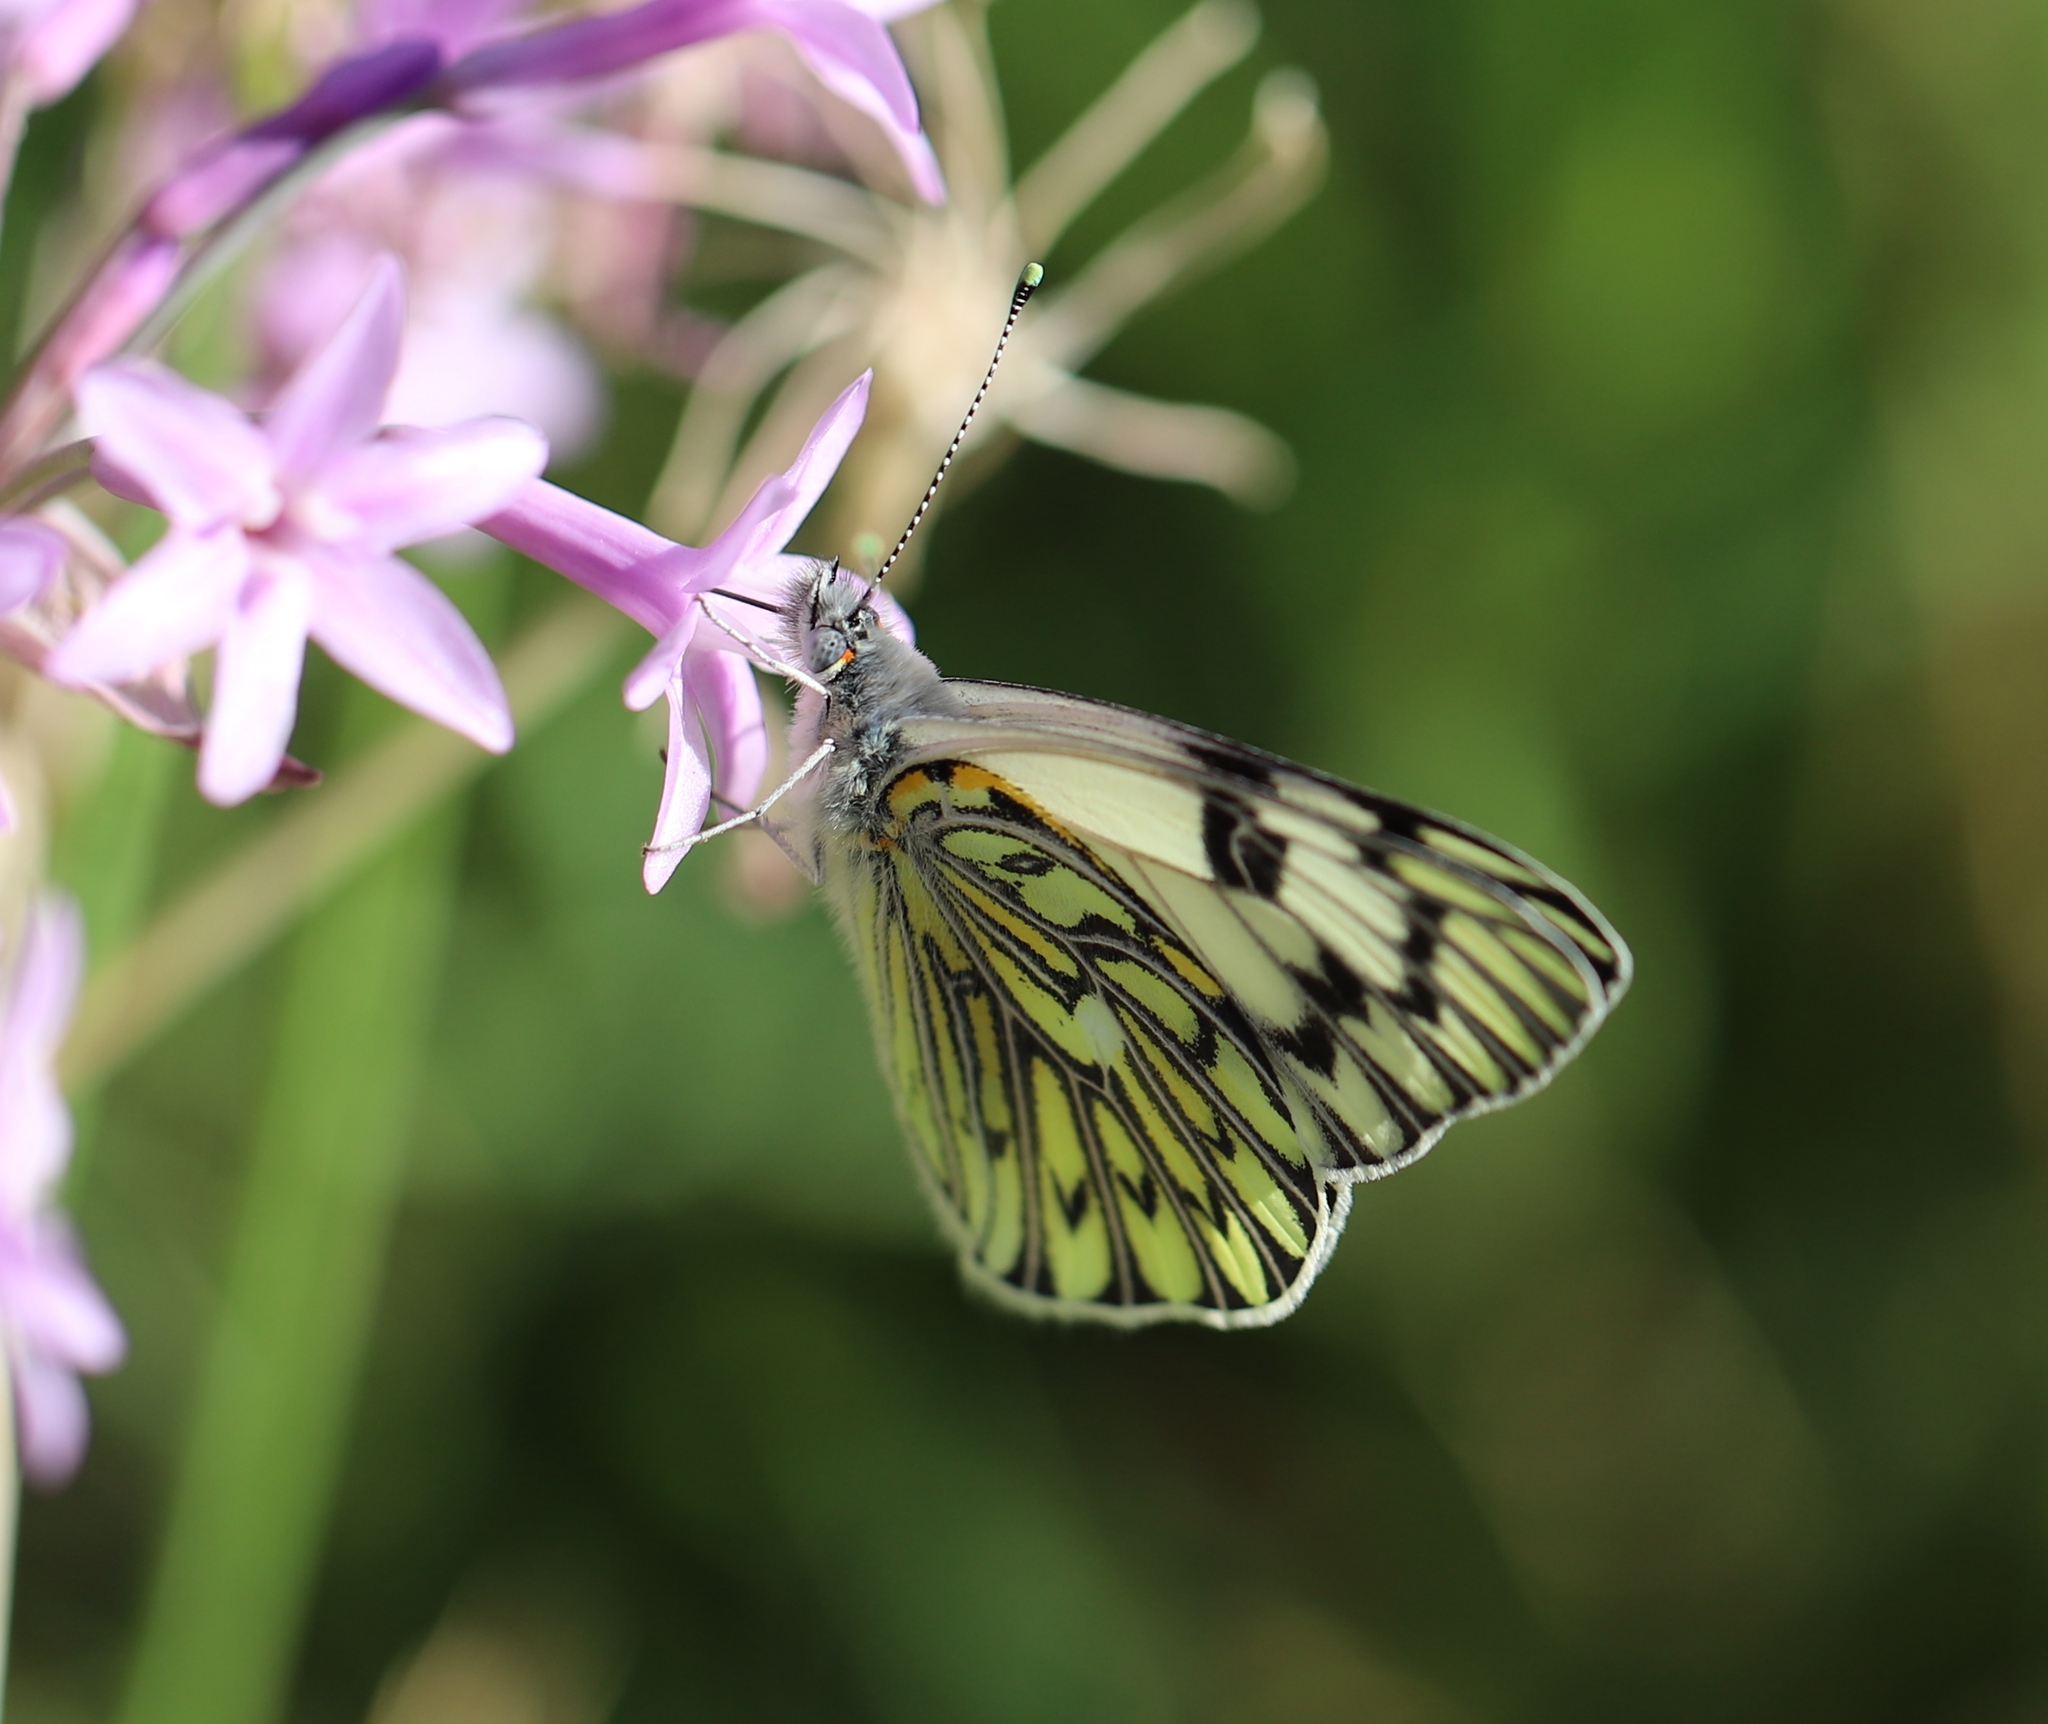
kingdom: Animalia
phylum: Arthropoda
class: Insecta
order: Lepidoptera
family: Pieridae
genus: Tatochila
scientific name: Tatochila autodice
